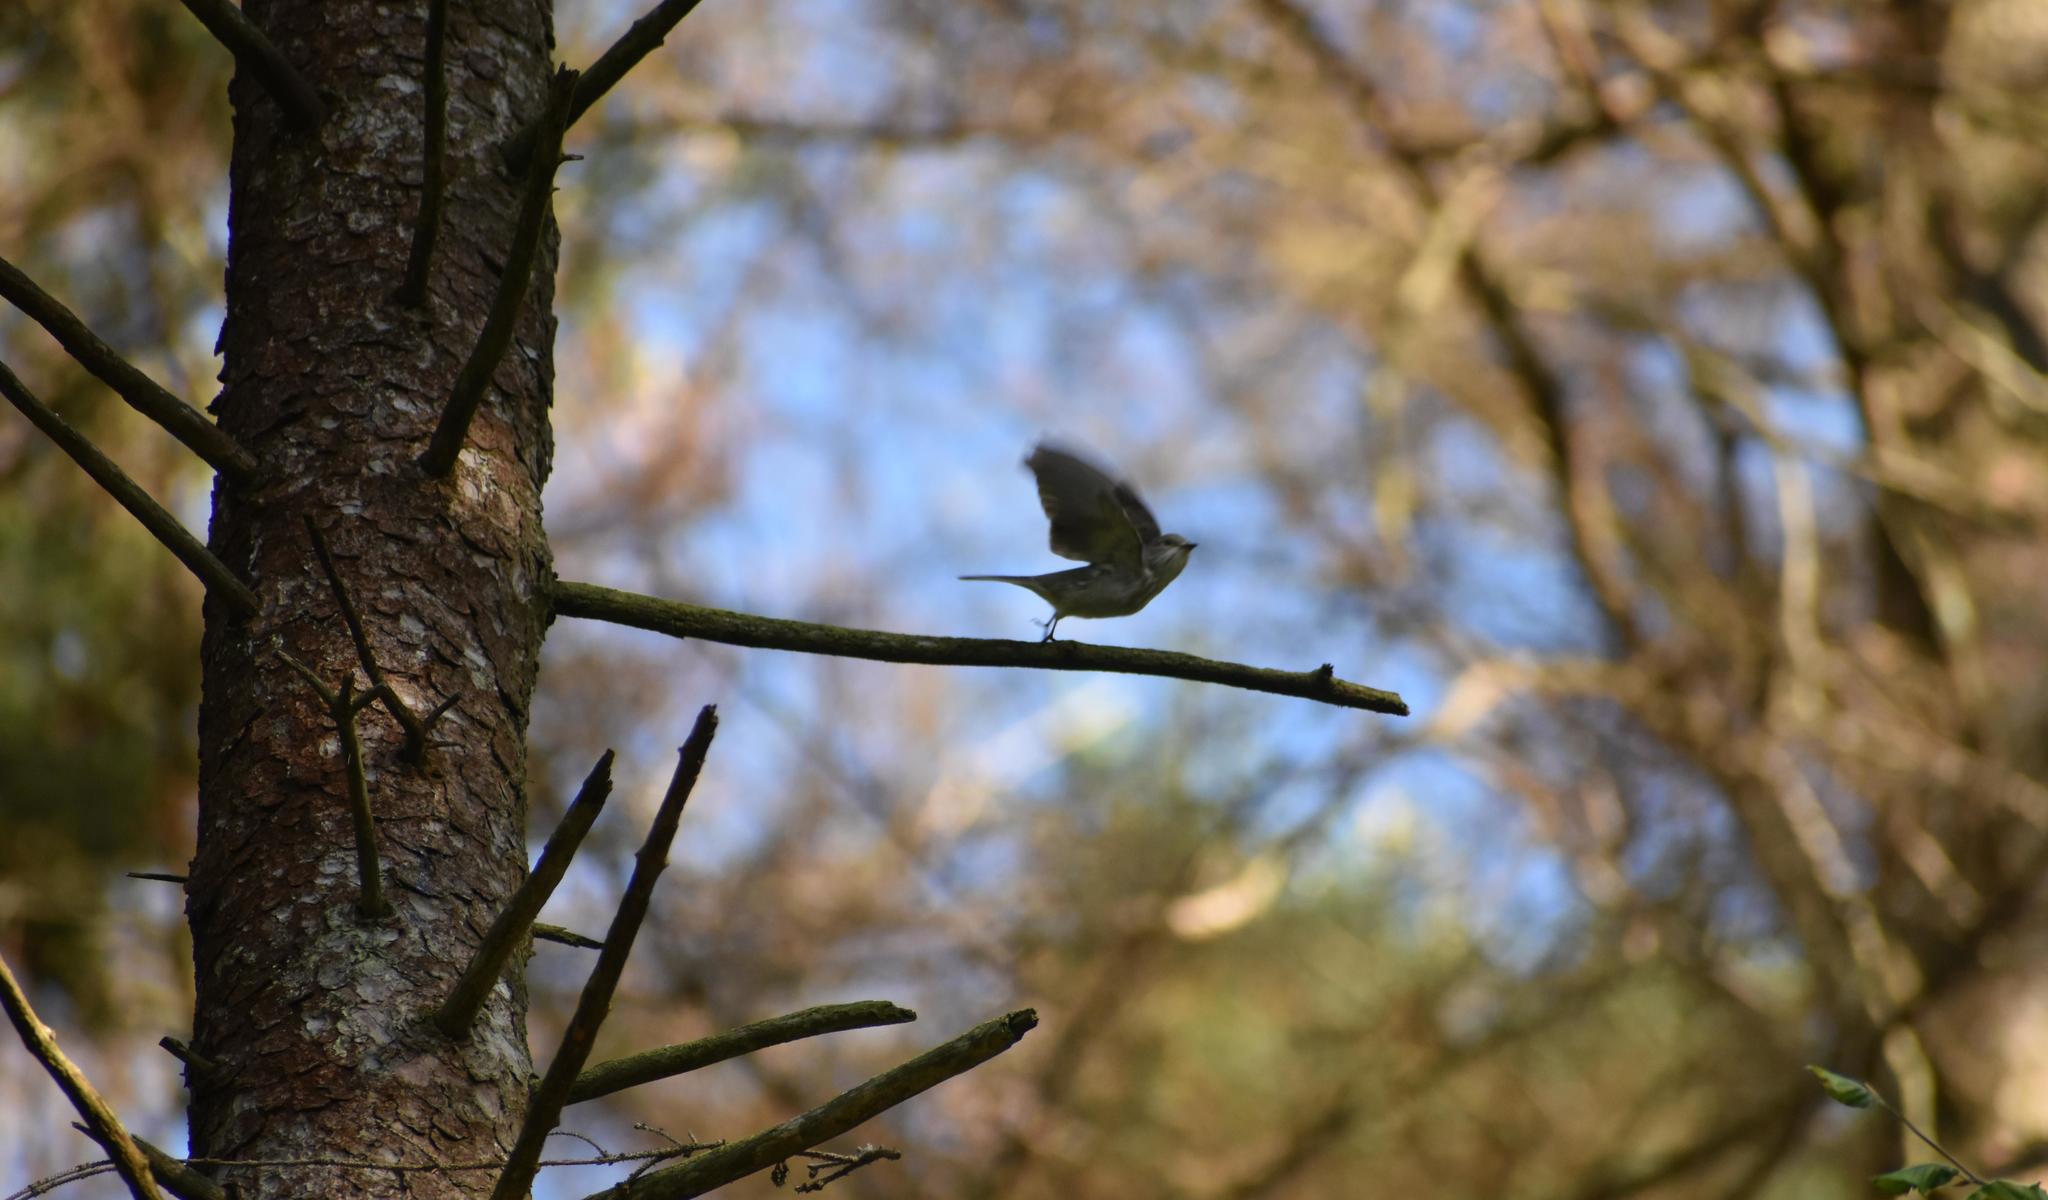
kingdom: Animalia
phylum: Chordata
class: Aves
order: Passeriformes
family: Muscicapidae
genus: Muscicapa
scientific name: Muscicapa striata
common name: Spotted flycatcher
